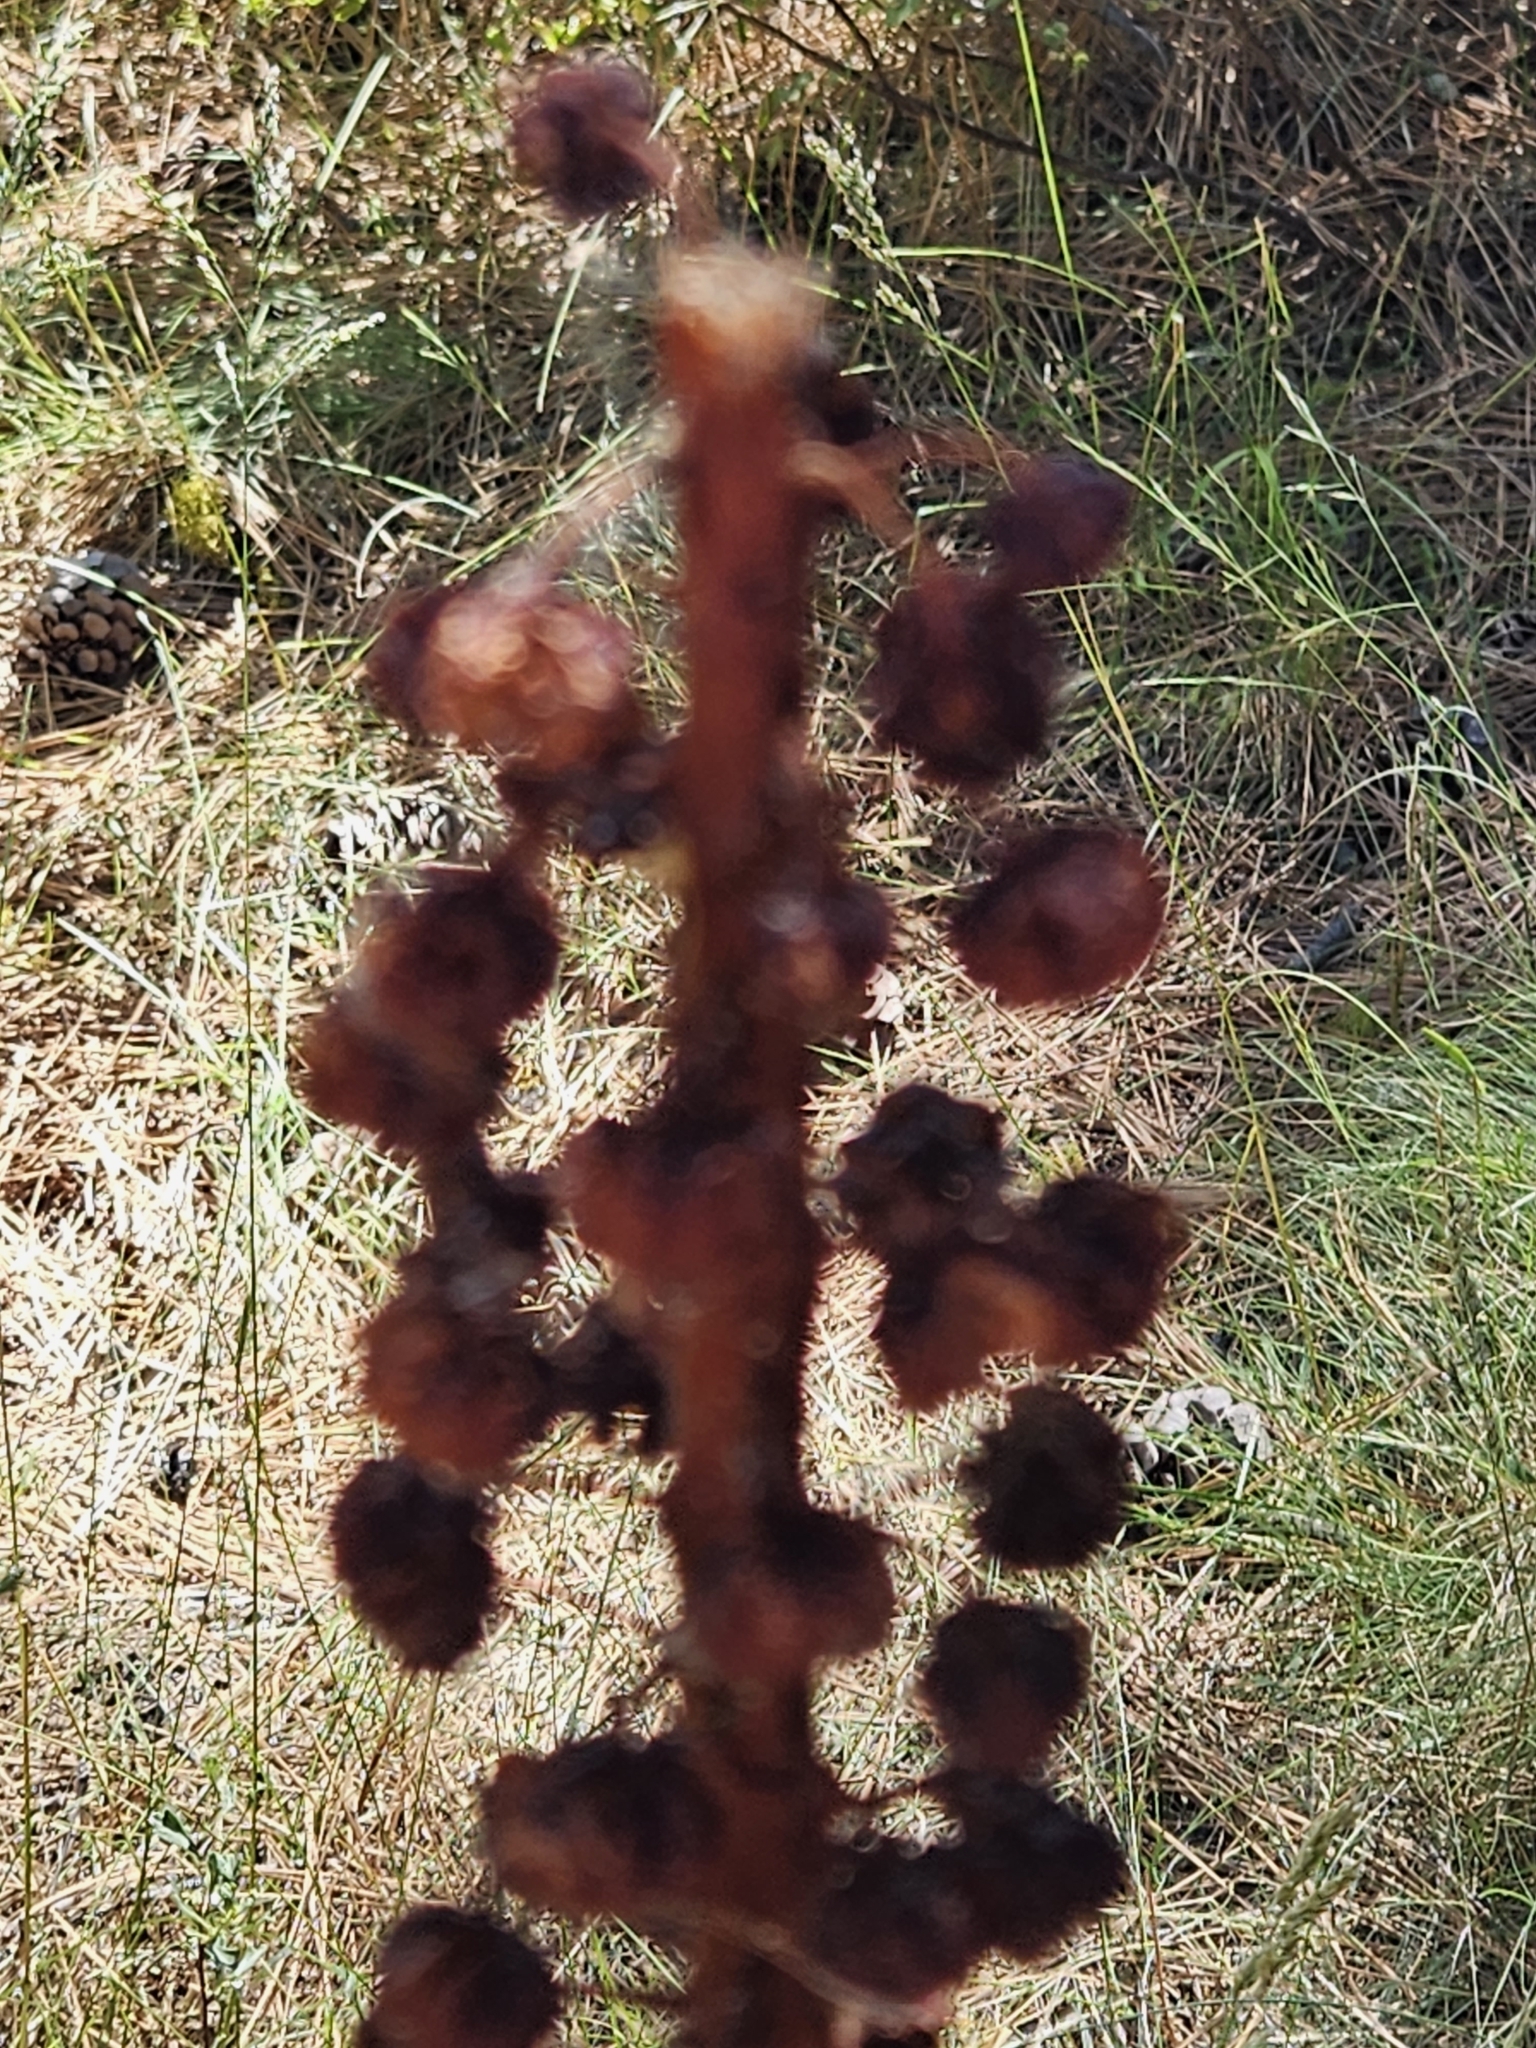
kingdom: Plantae
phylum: Tracheophyta
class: Magnoliopsida
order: Ericales
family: Ericaceae
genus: Pterospora
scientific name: Pterospora andromedea
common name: Giant bird's-nest
